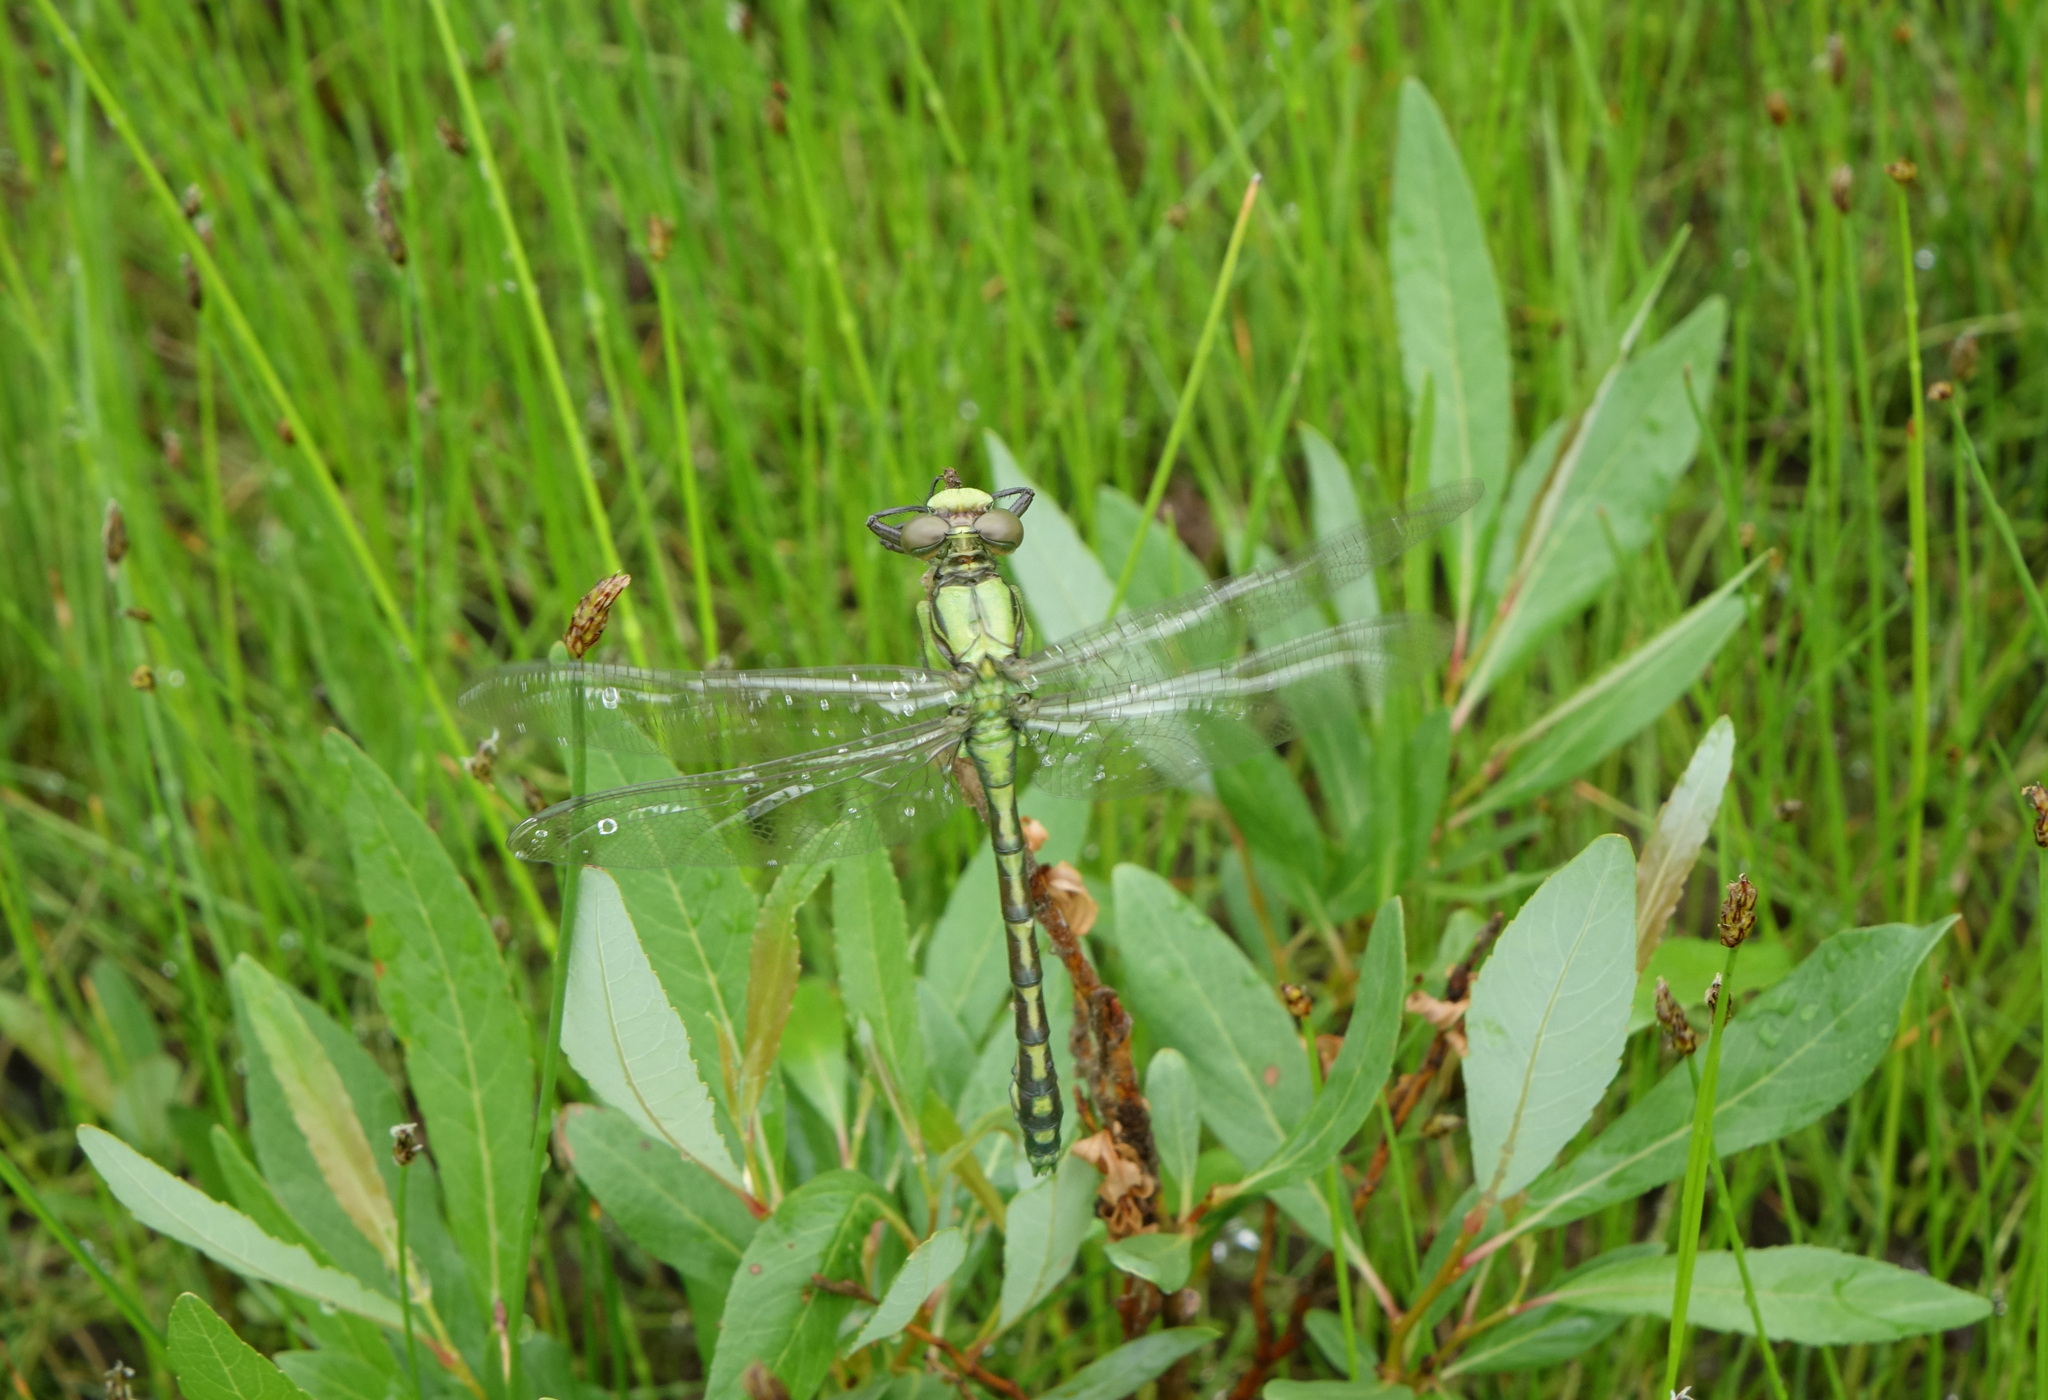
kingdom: Animalia
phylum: Arthropoda
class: Insecta
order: Odonata
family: Gomphidae
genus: Ophiogomphus
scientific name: Ophiogomphus obscurus
